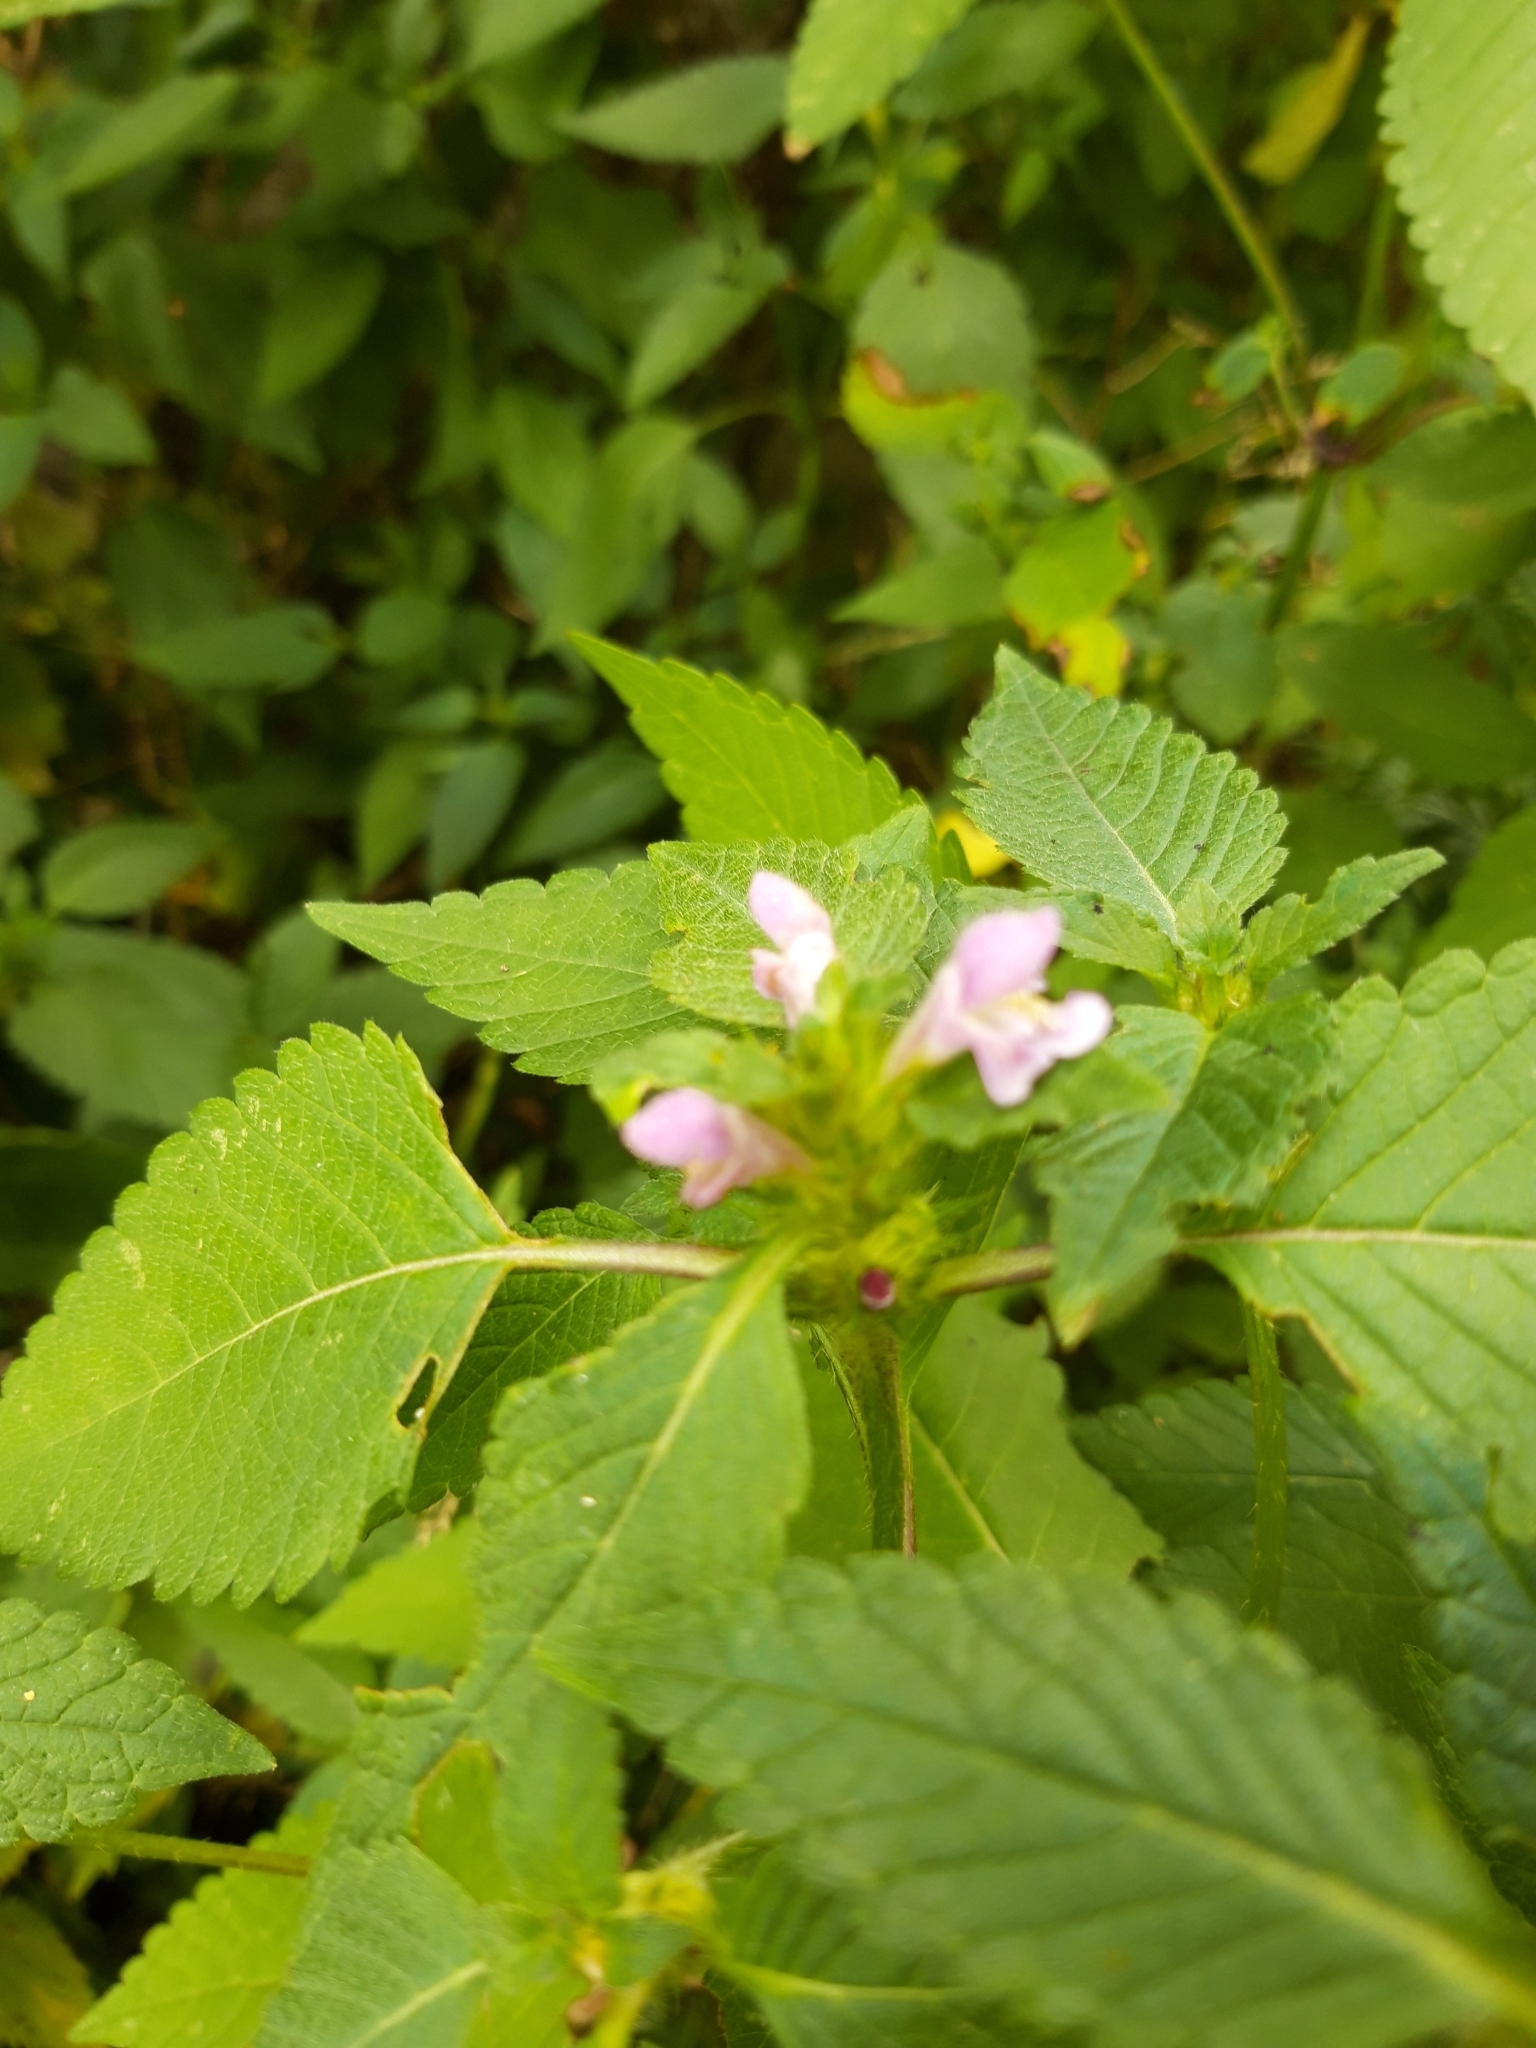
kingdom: Plantae
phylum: Tracheophyta
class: Magnoliopsida
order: Lamiales
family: Lamiaceae
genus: Galeopsis
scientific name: Galeopsis tetrahit
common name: Common hemp-nettle
